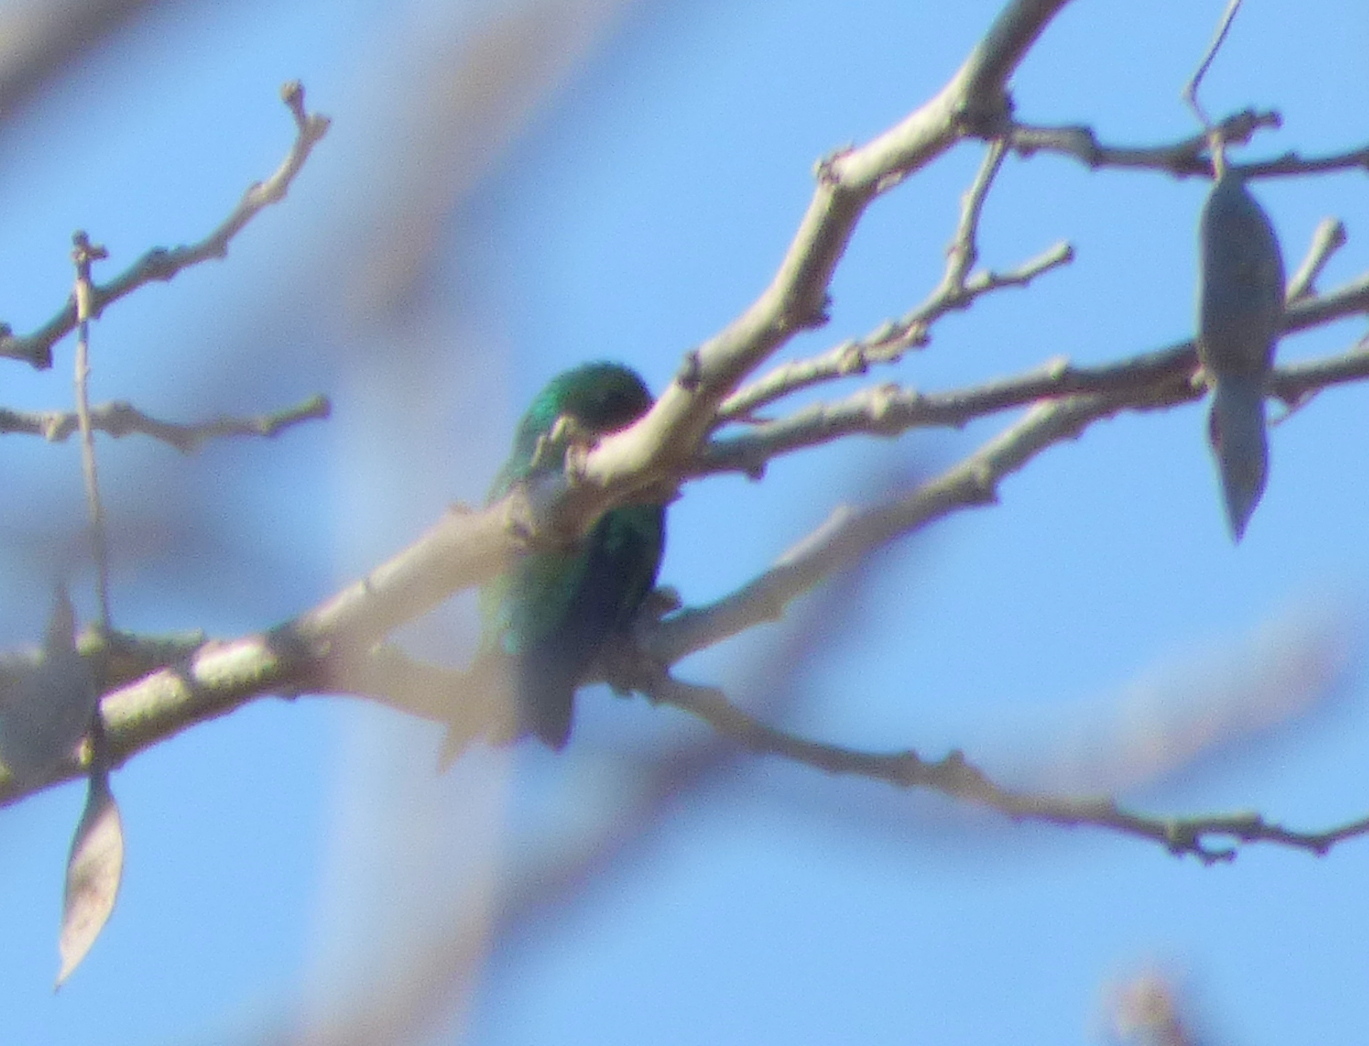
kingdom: Animalia
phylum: Chordata
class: Aves
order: Apodiformes
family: Trochilidae
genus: Chlorostilbon
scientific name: Chlorostilbon lucidus
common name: Glittering-bellied emerald
